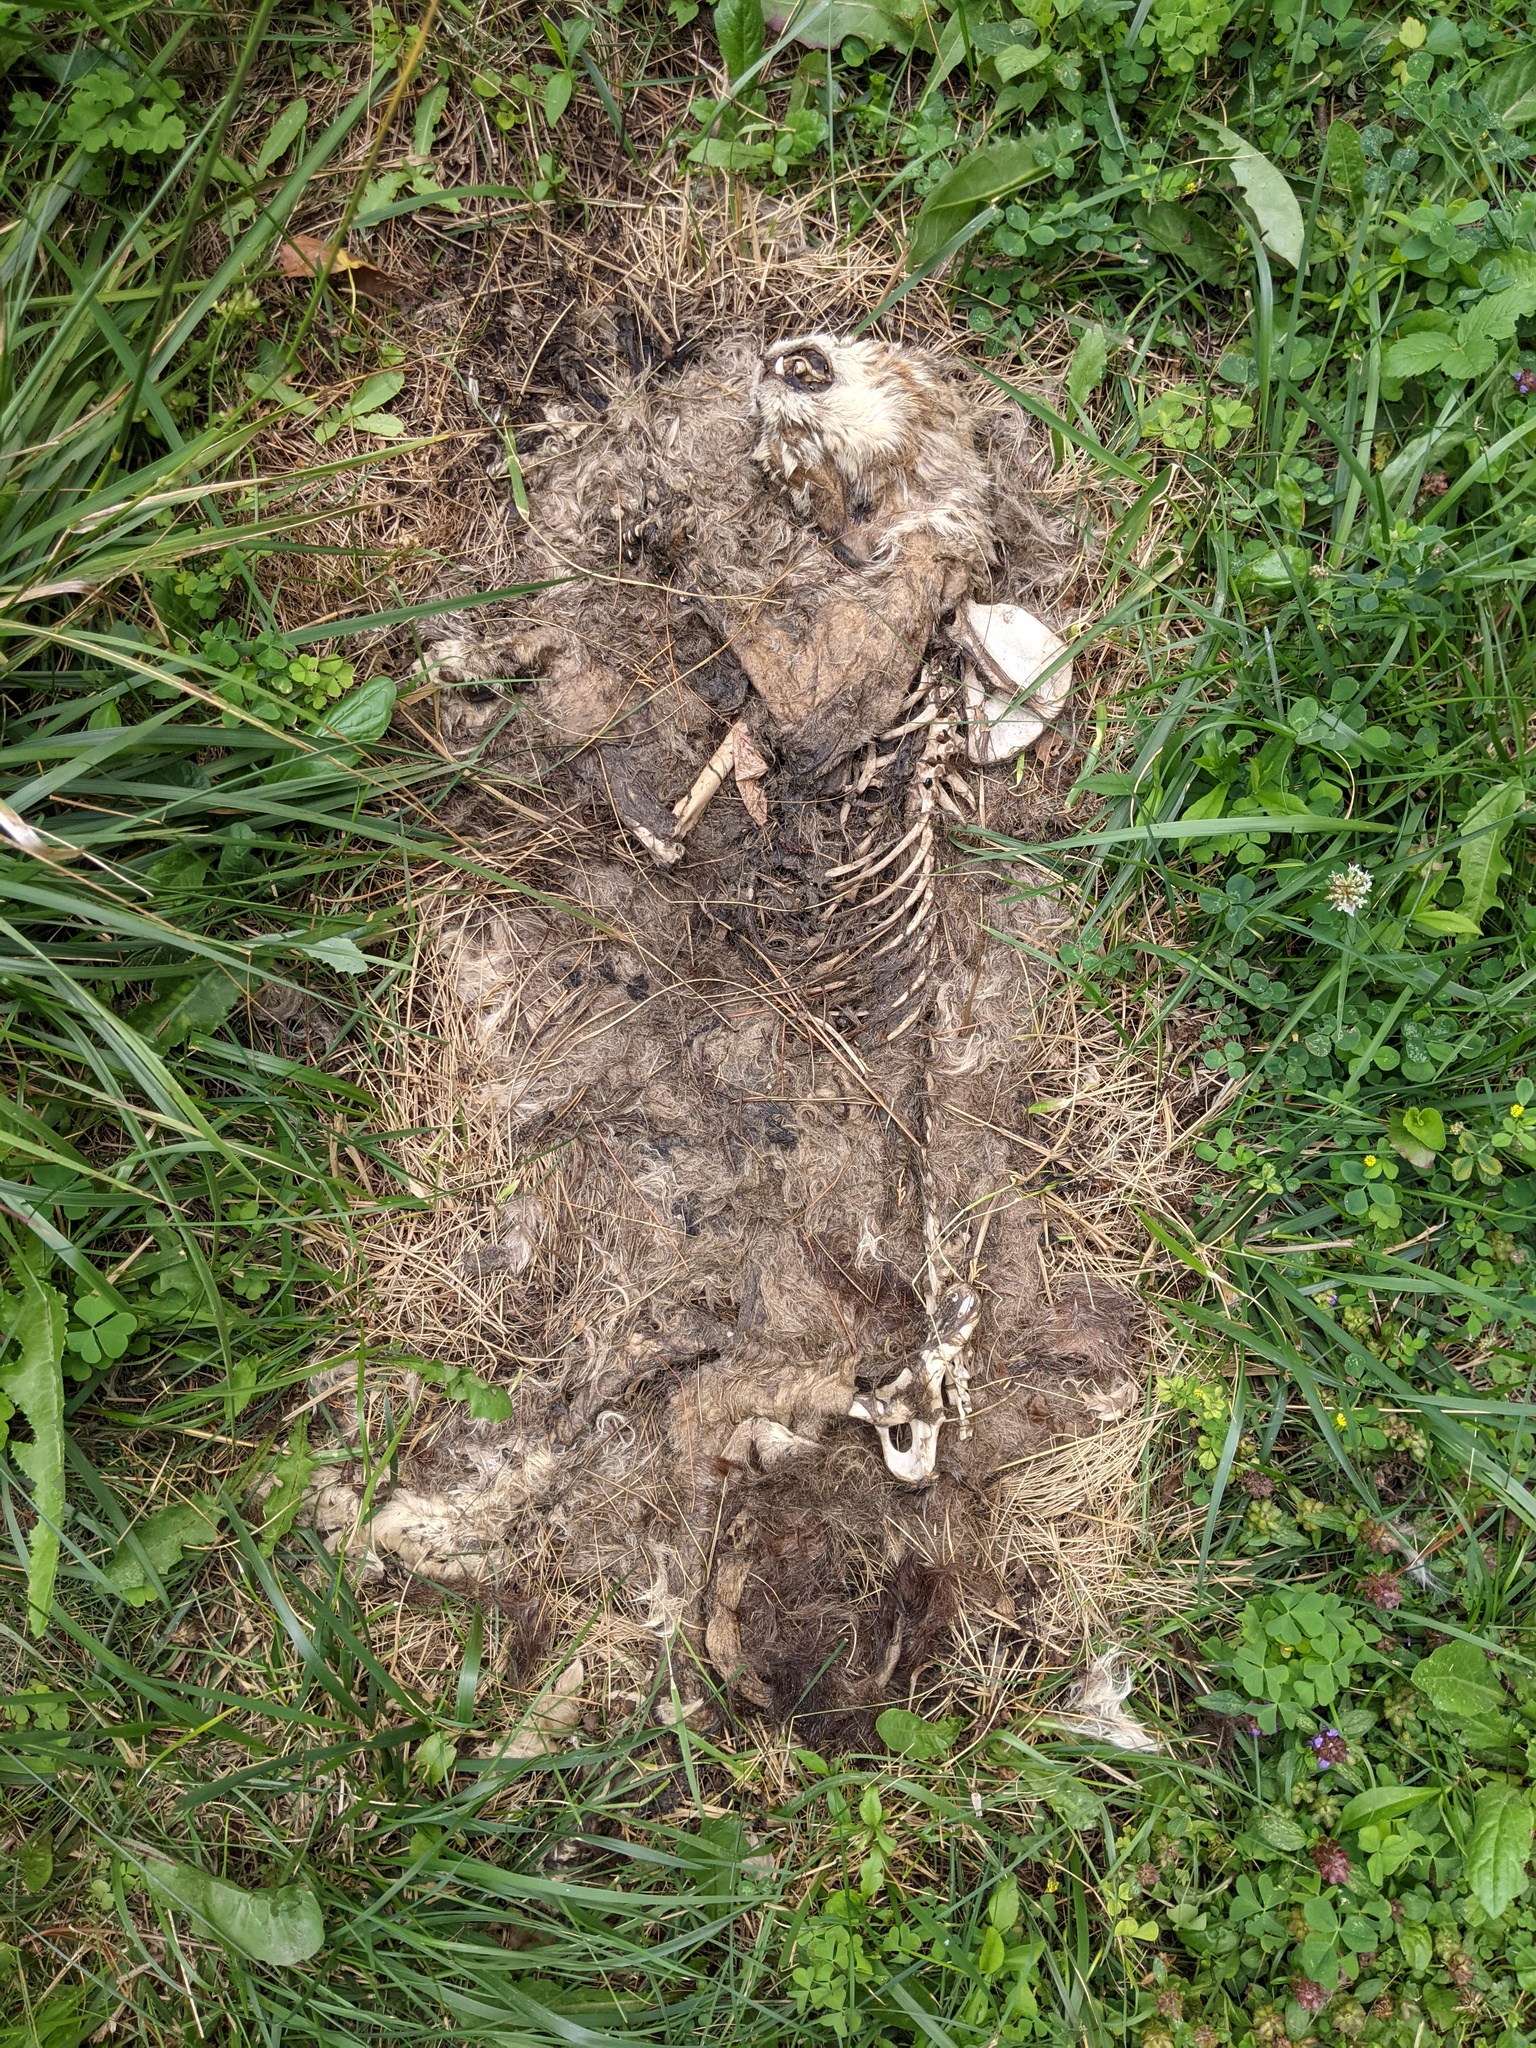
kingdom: Animalia
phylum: Chordata
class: Mammalia
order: Carnivora
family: Felidae
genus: Felis
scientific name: Felis catus
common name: Domestic cat
